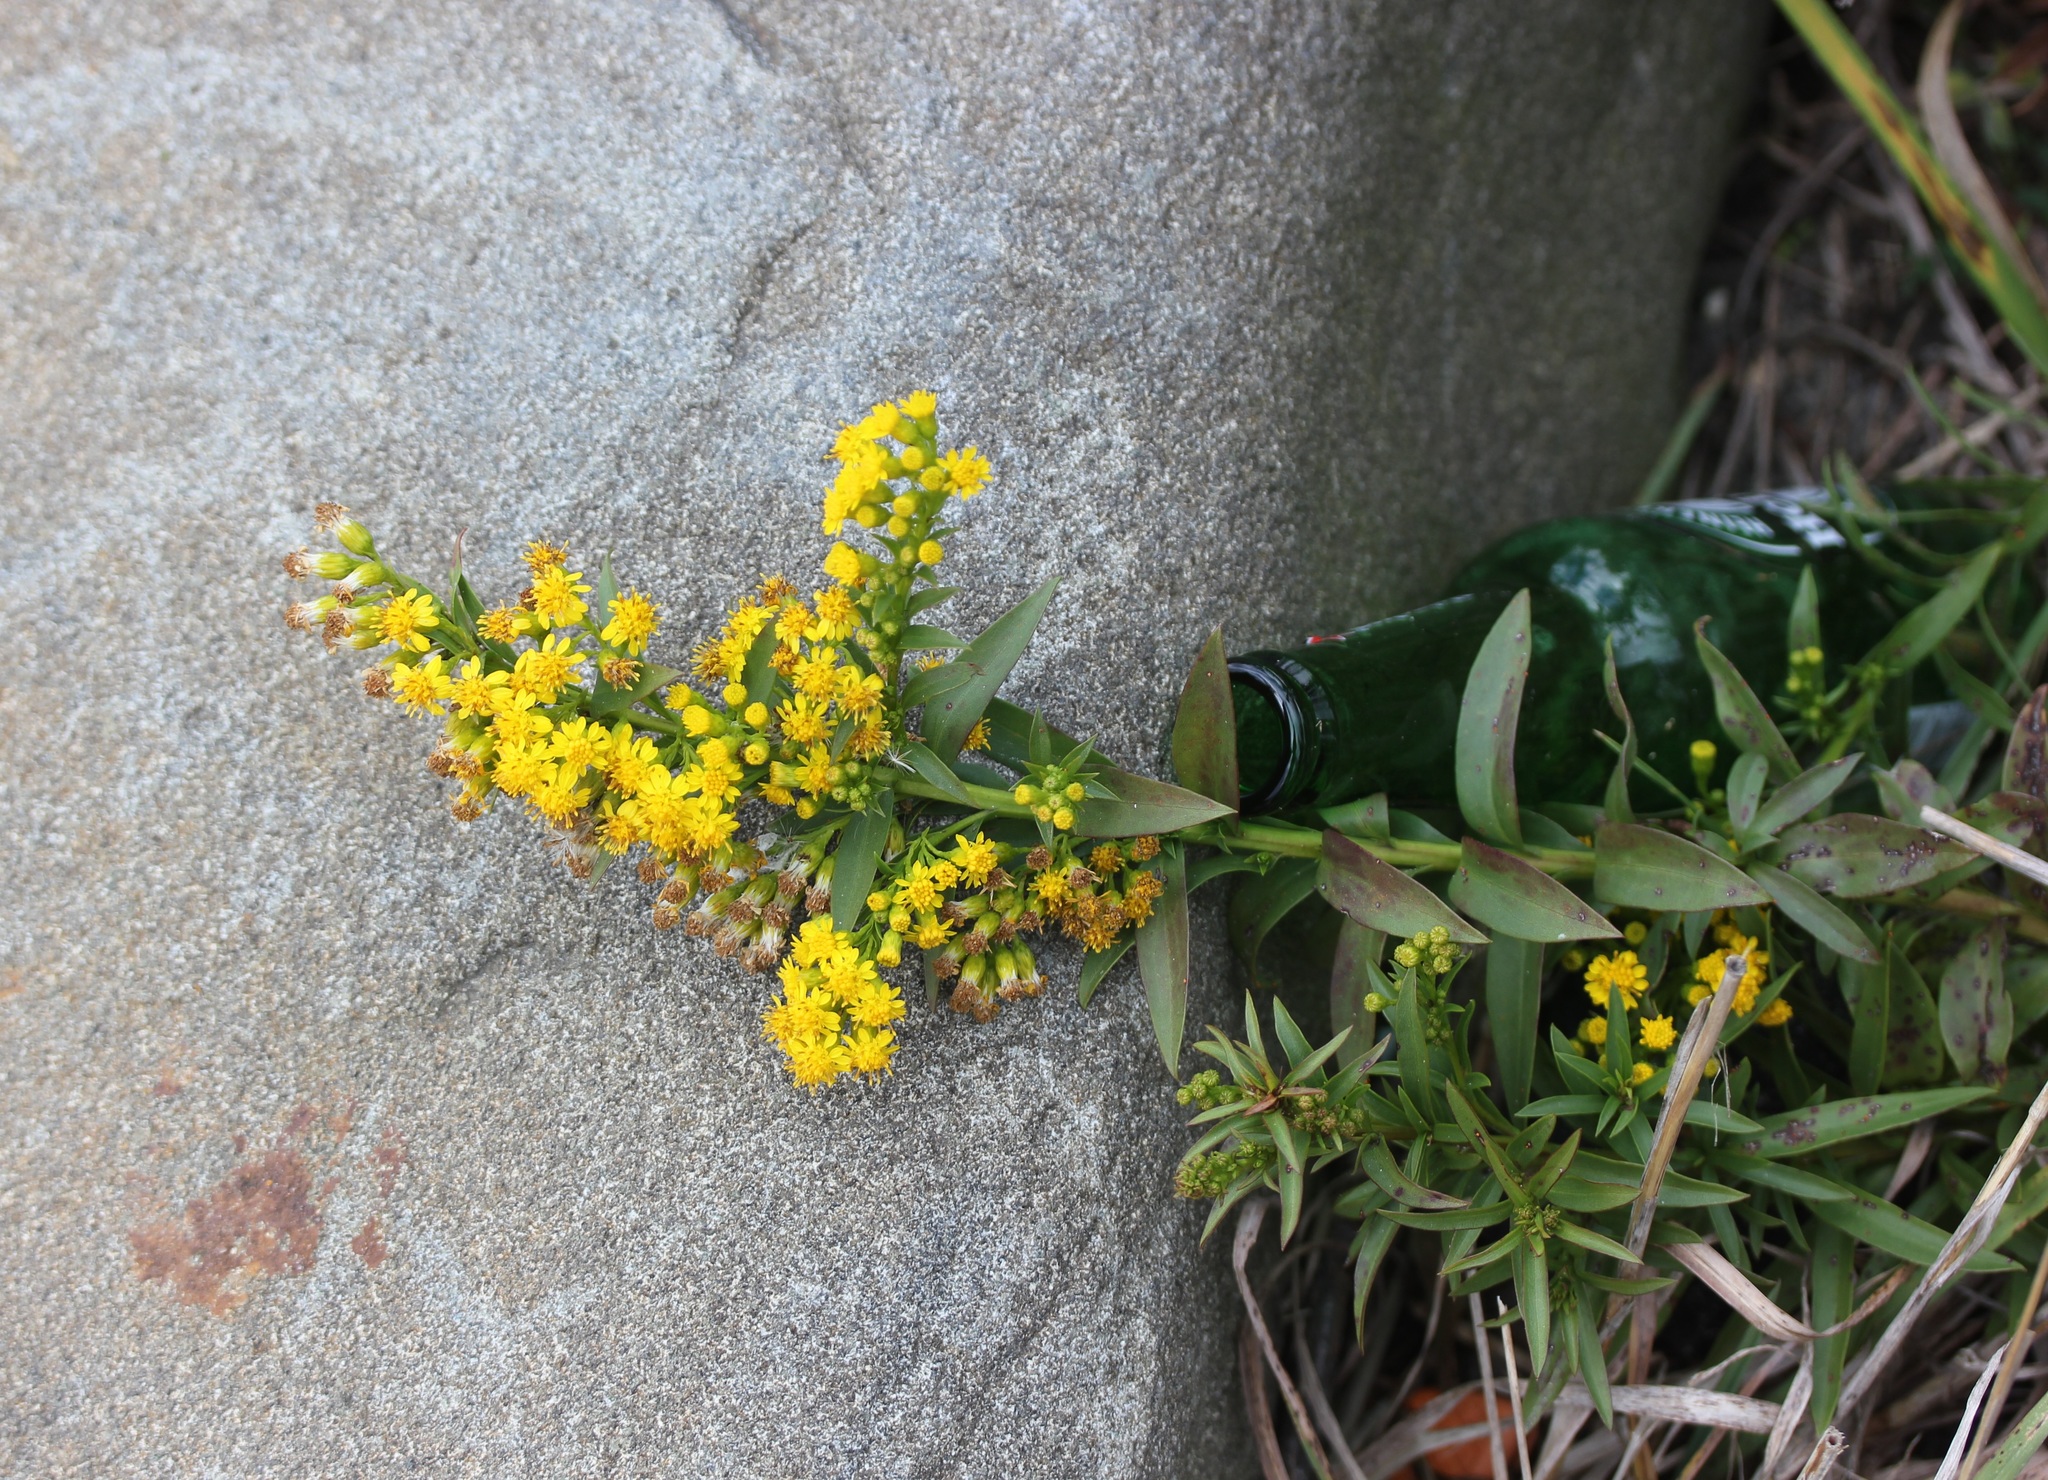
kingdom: Plantae
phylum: Tracheophyta
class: Magnoliopsida
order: Asterales
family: Asteraceae
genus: Solidago
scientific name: Solidago sempervirens
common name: Salt-marsh goldenrod
